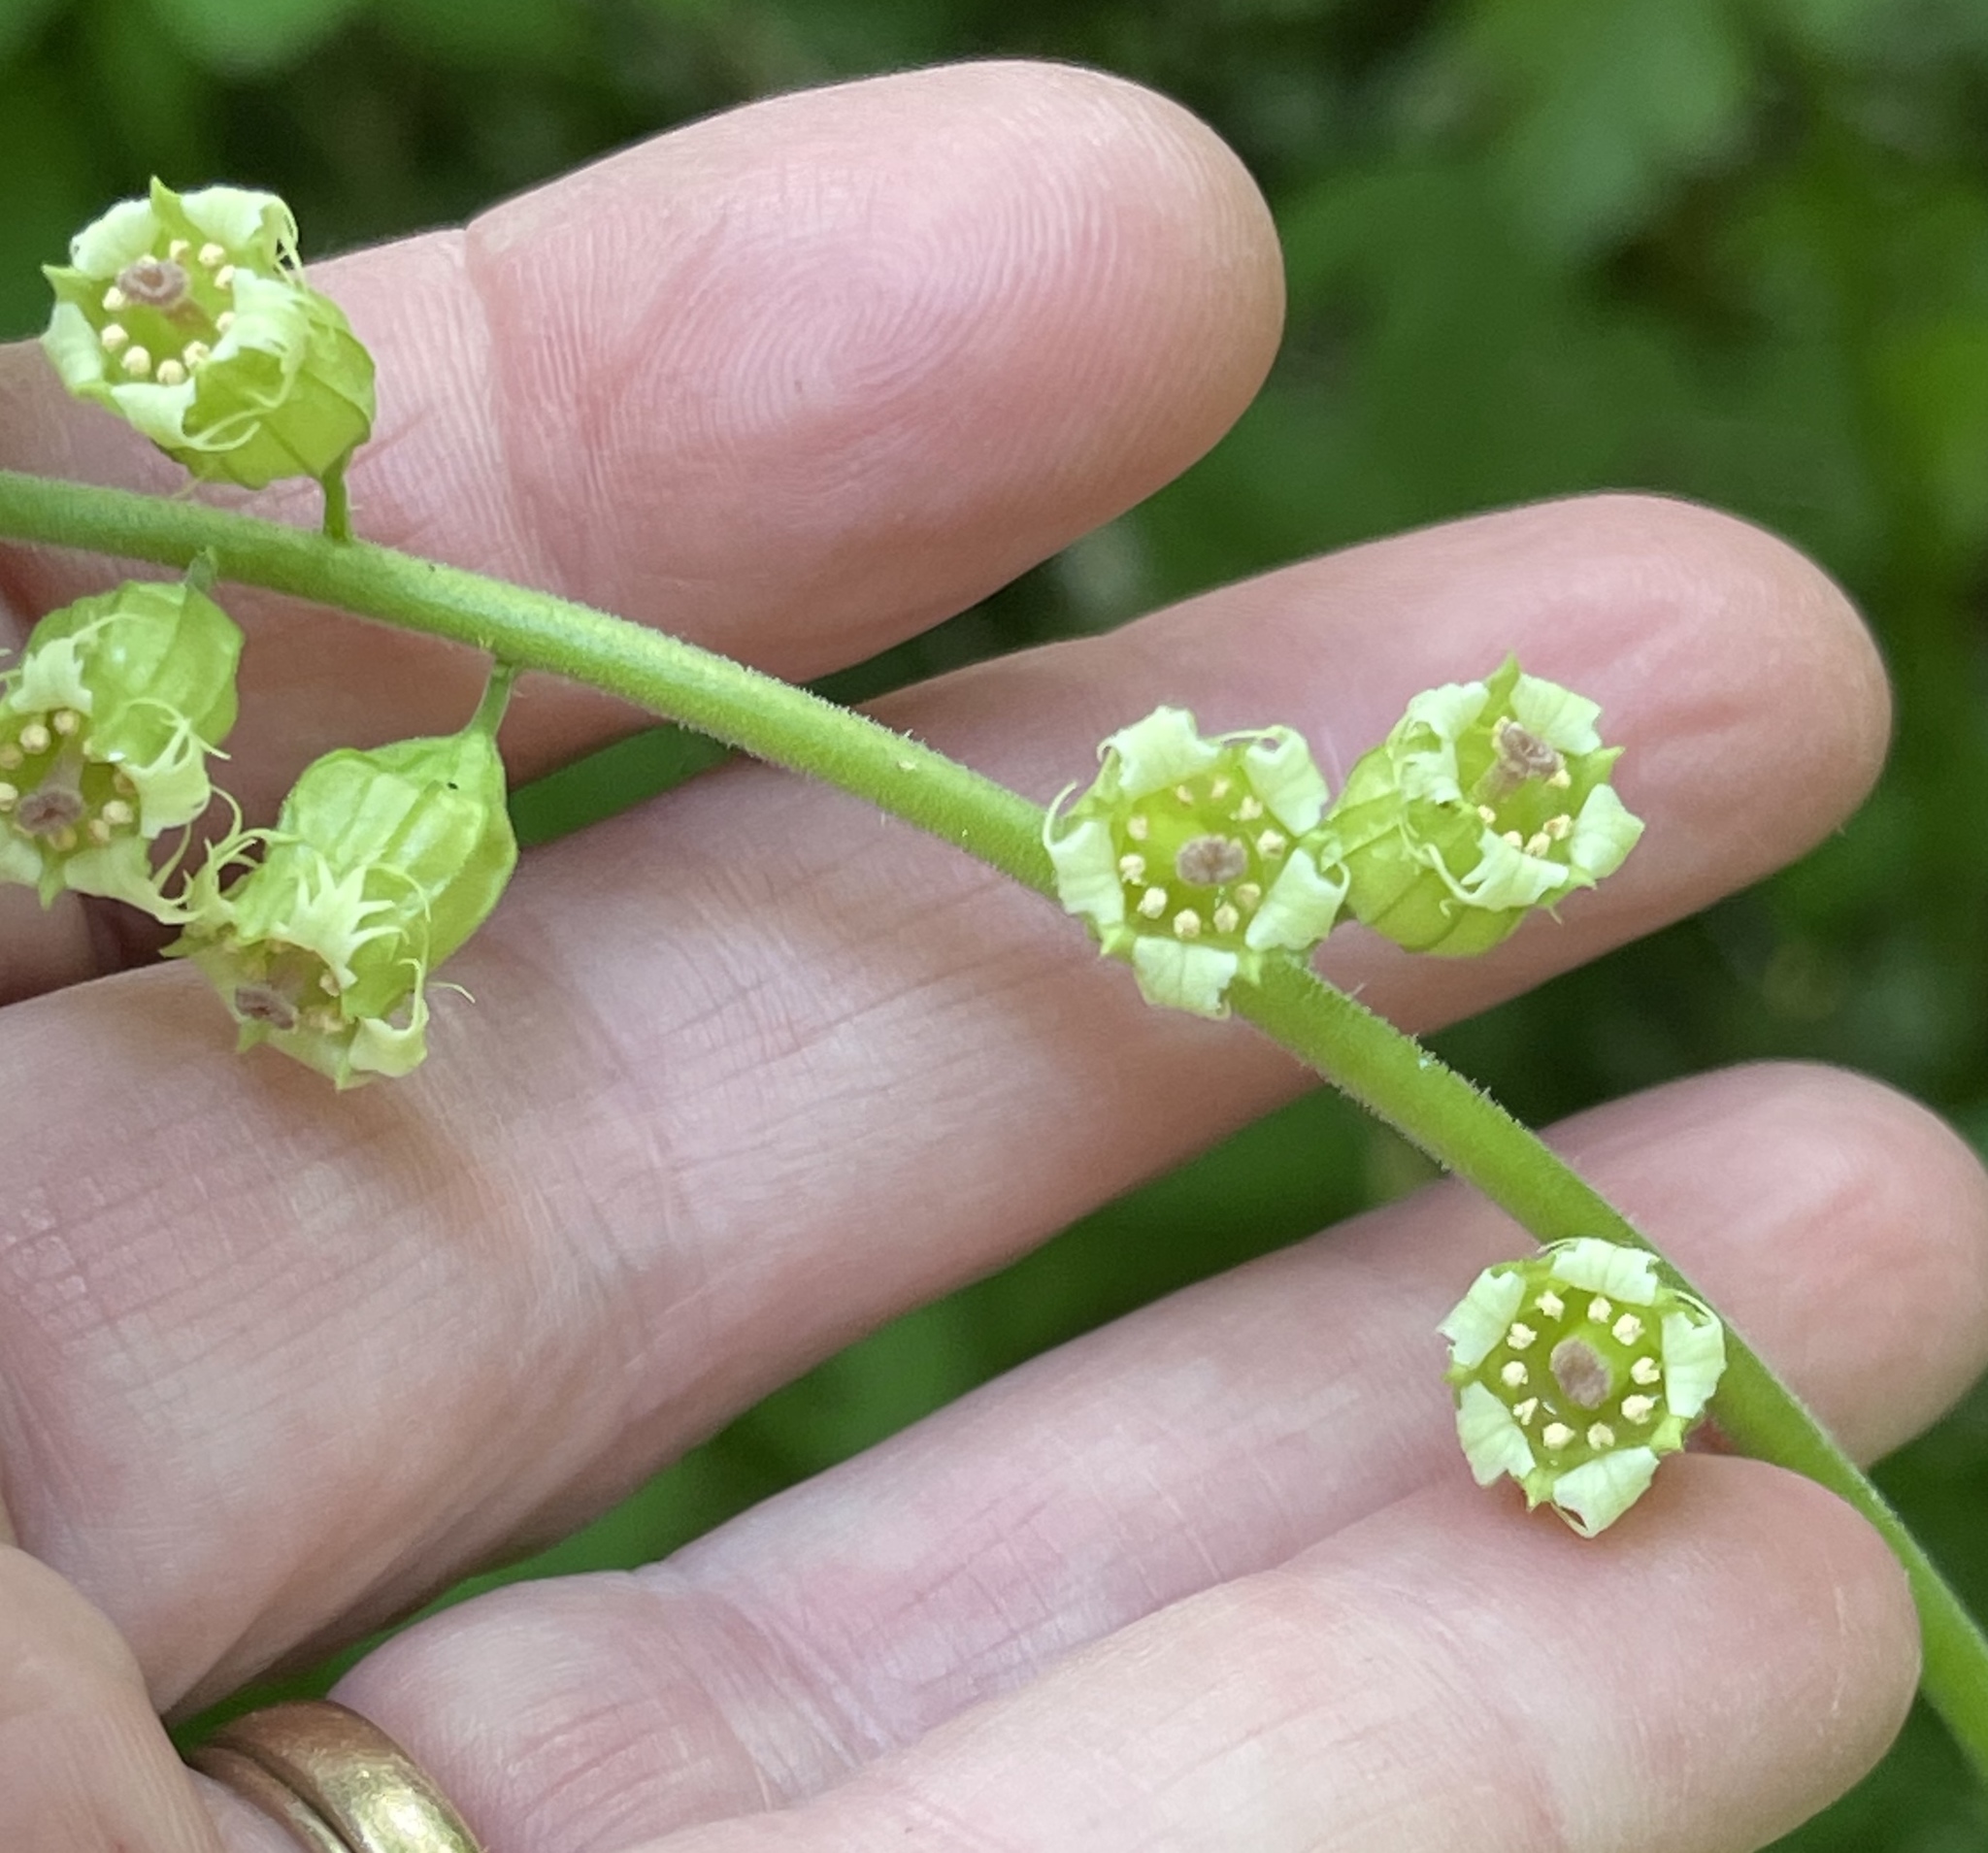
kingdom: Plantae
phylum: Tracheophyta
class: Magnoliopsida
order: Saxifragales
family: Saxifragaceae
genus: Tellima
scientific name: Tellima grandiflora
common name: Fringecups
